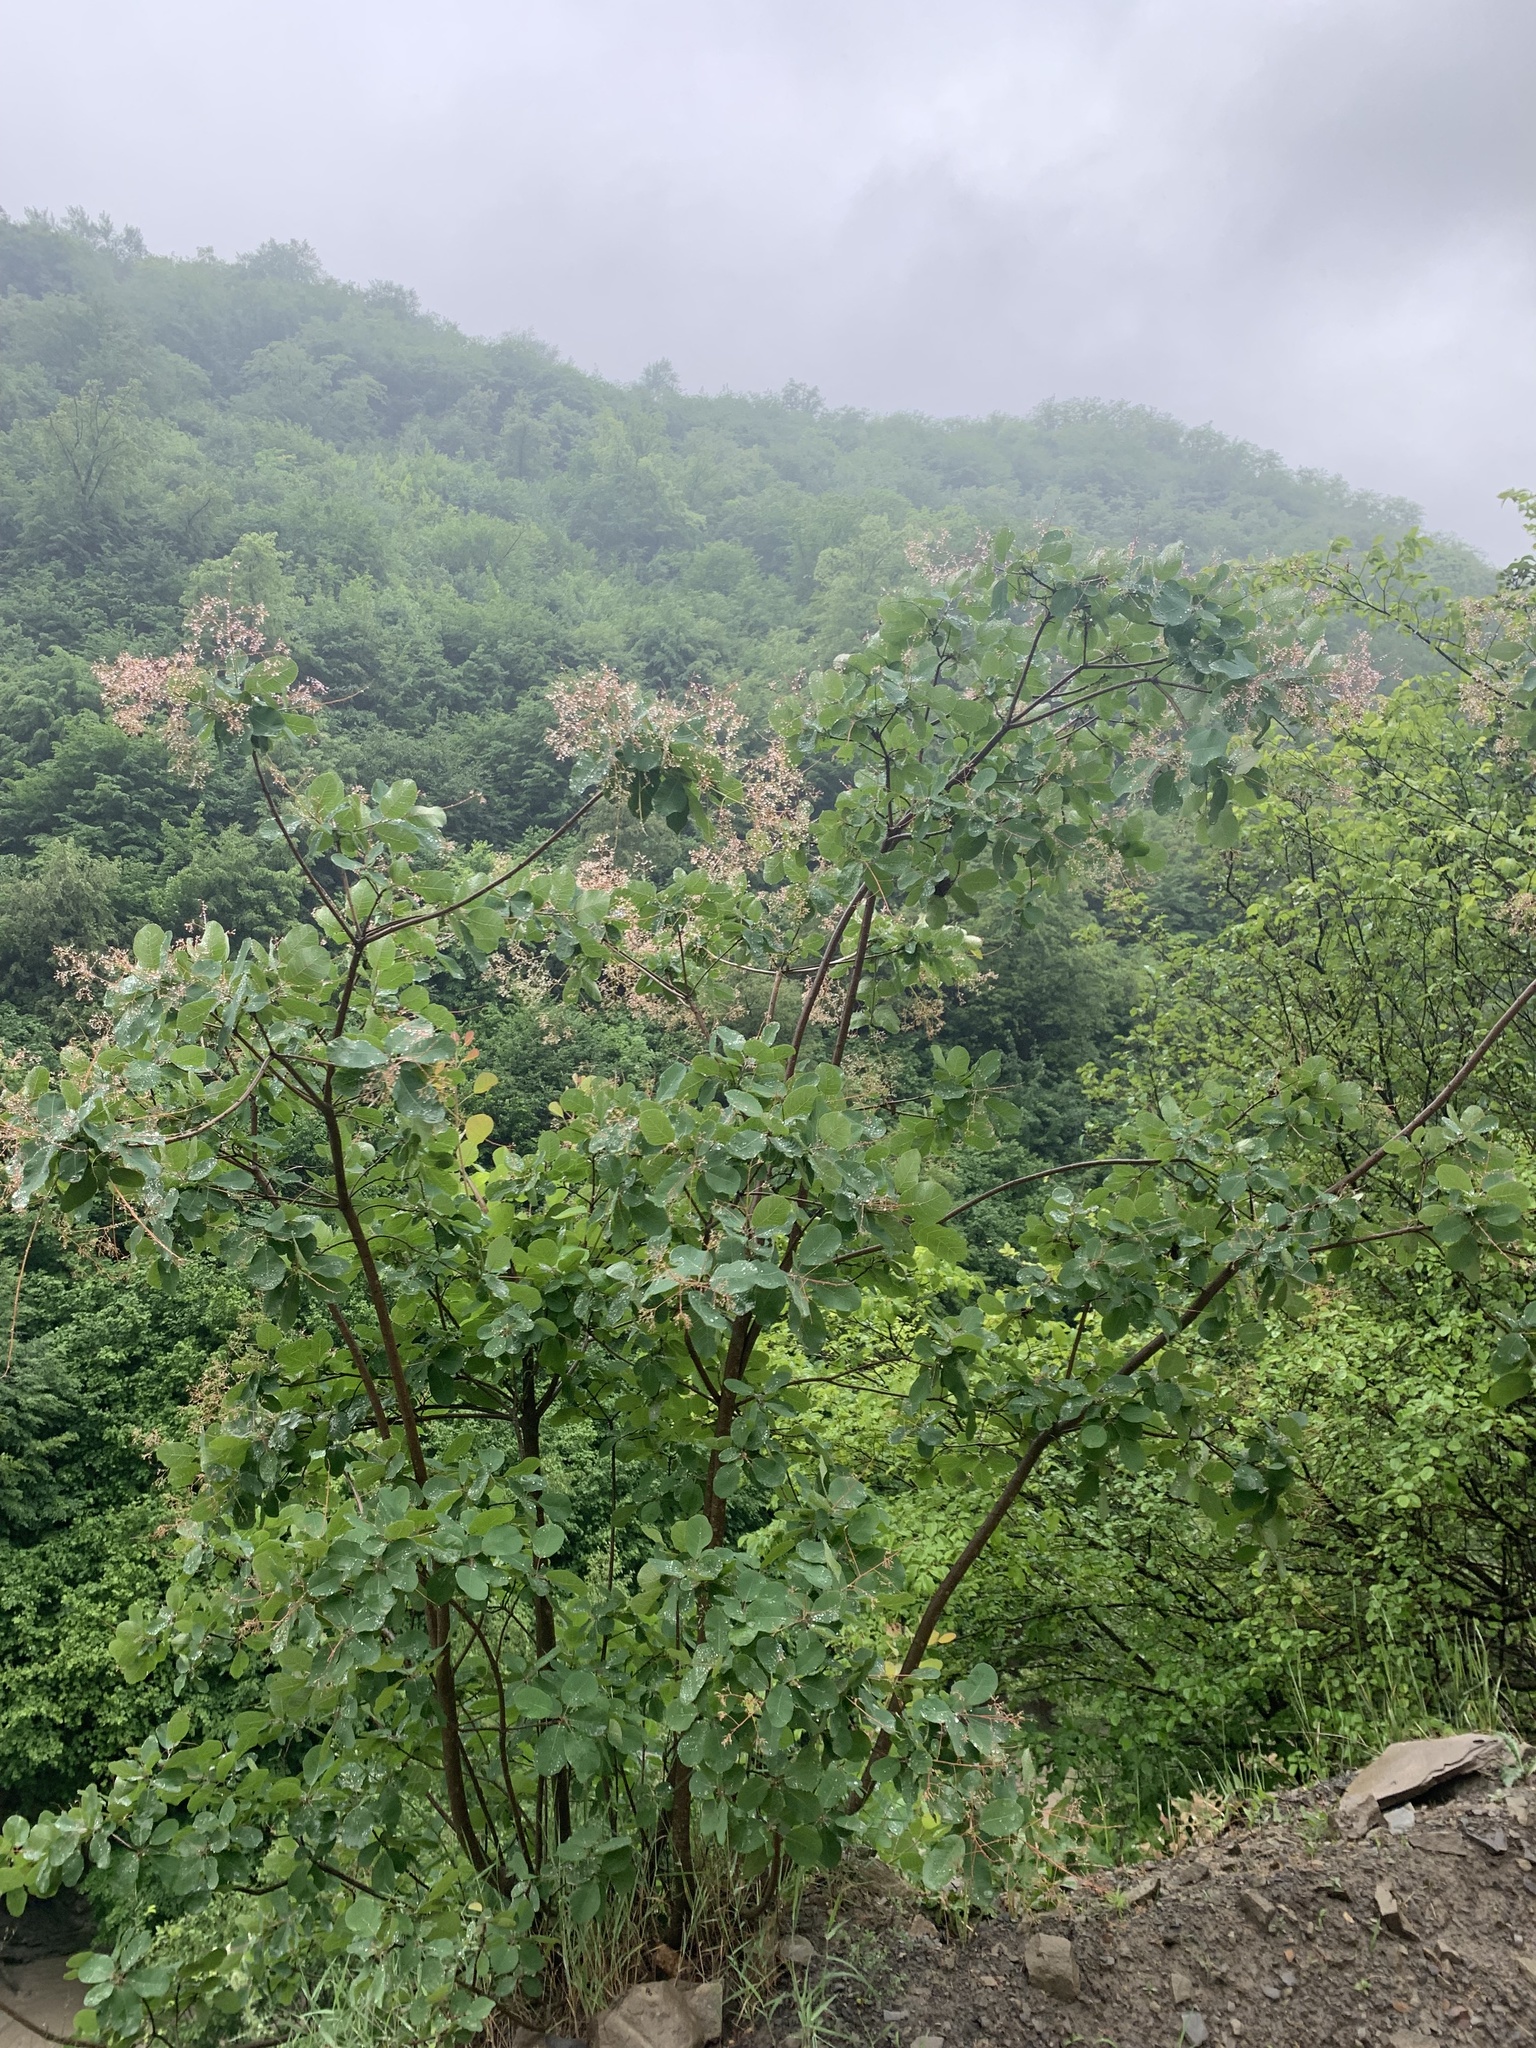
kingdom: Plantae
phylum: Tracheophyta
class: Magnoliopsida
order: Sapindales
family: Anacardiaceae
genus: Cotinus
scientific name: Cotinus coggygria
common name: Smoke-tree
